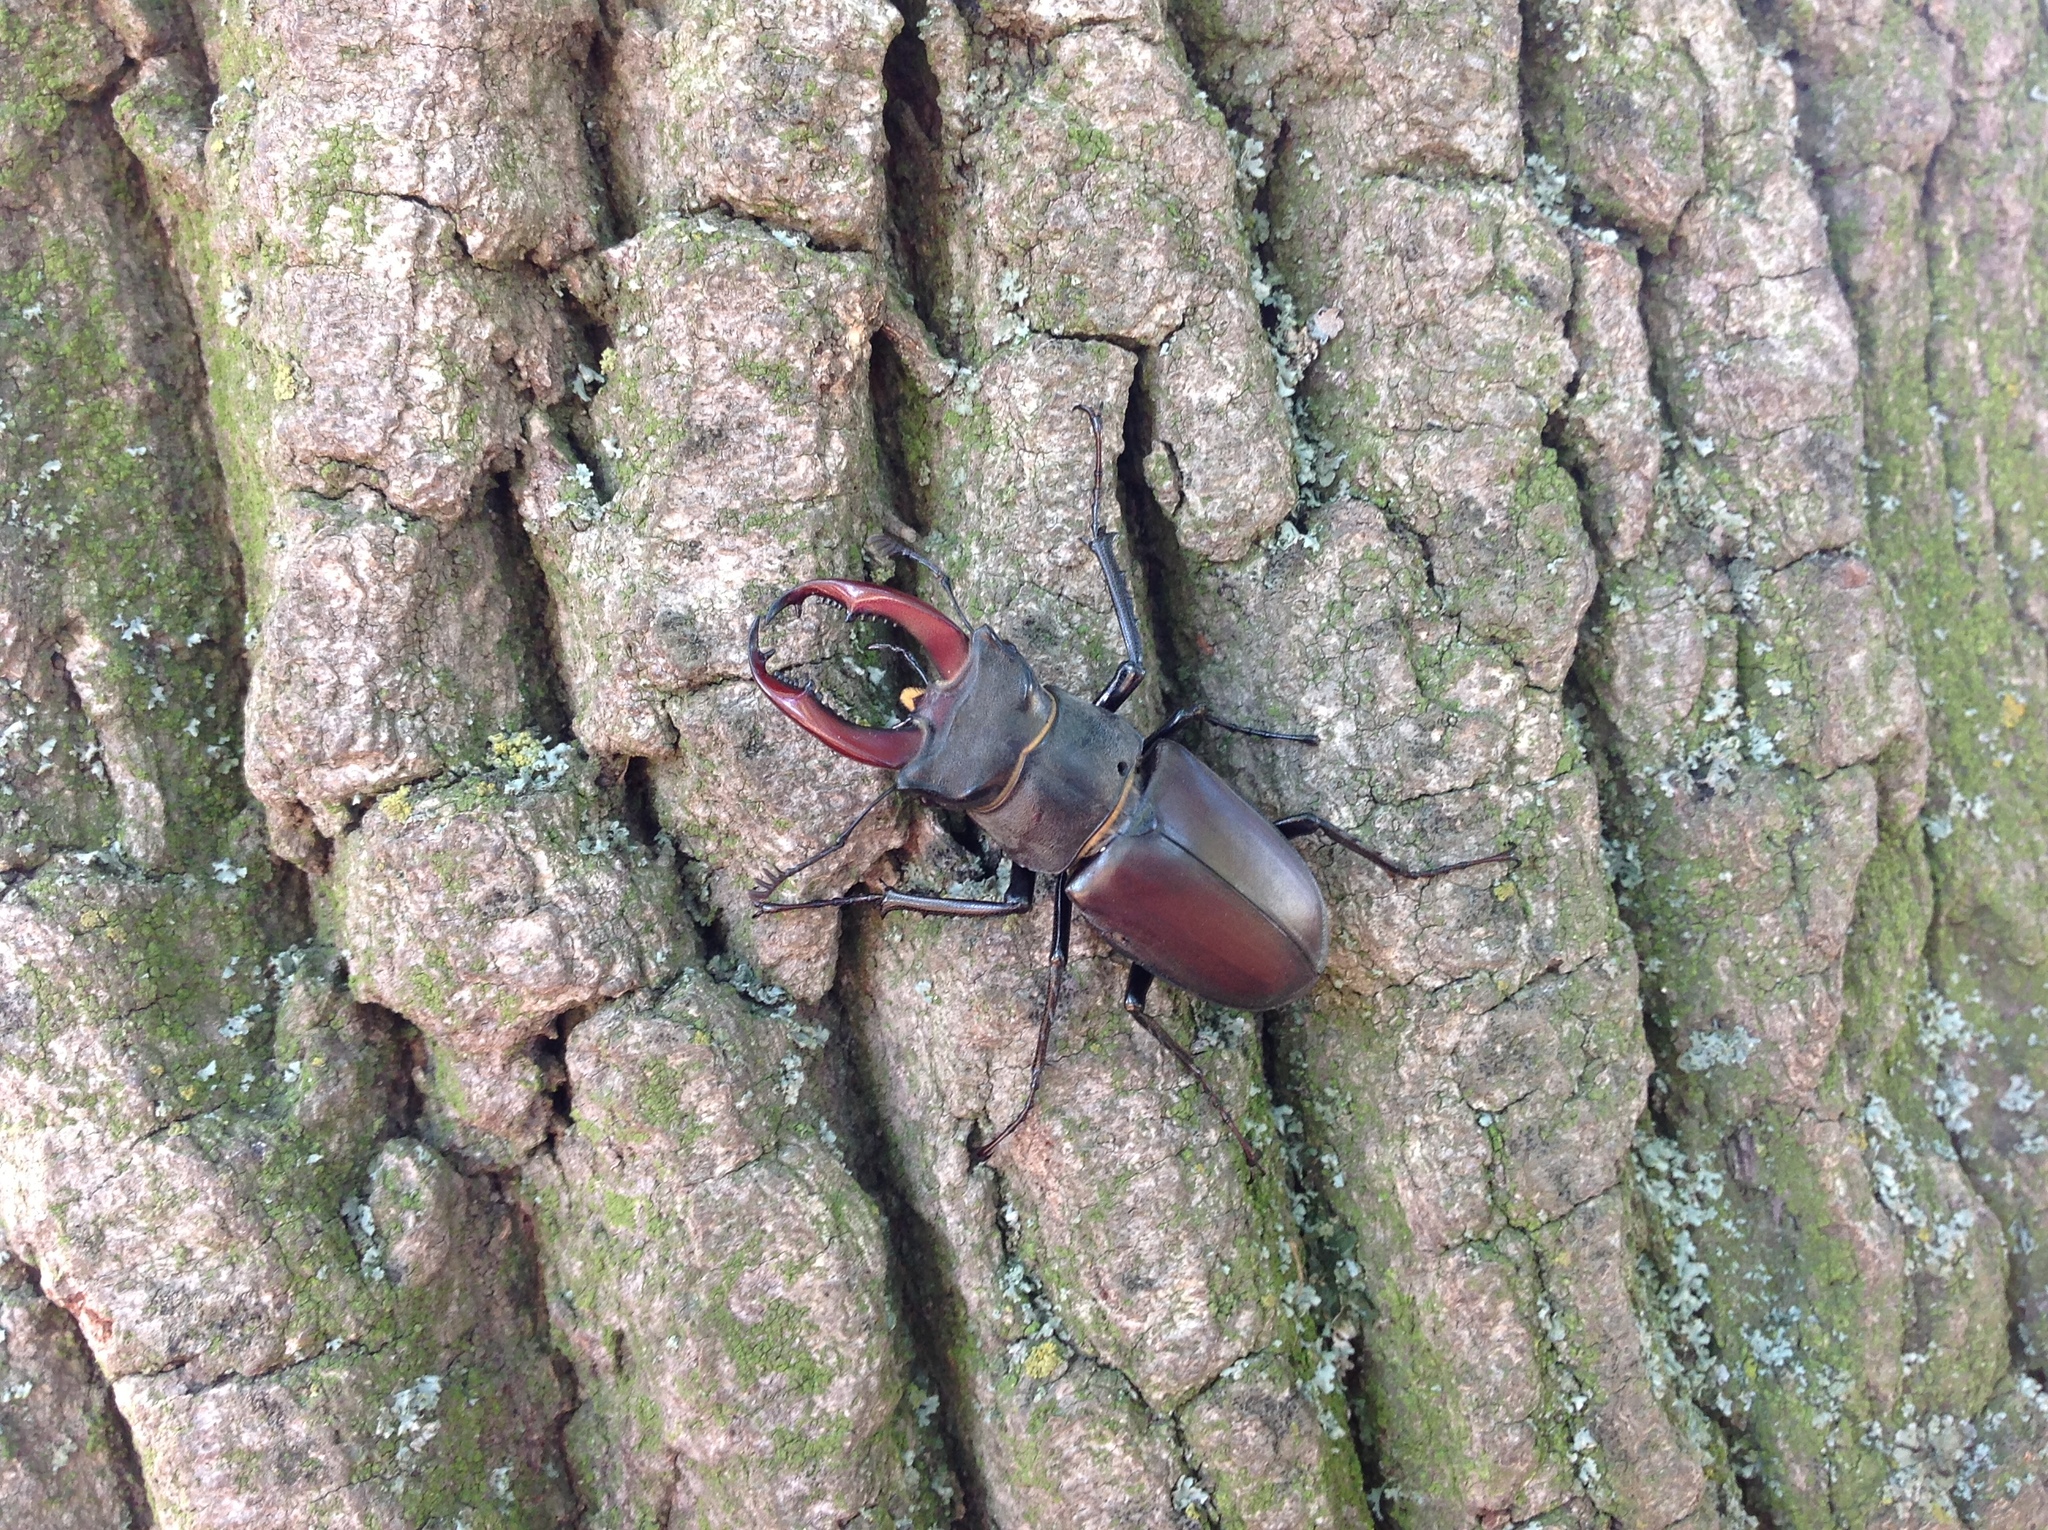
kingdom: Animalia
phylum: Arthropoda
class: Insecta
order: Coleoptera
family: Lucanidae
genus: Lucanus
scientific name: Lucanus cervus
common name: Stag beetle
